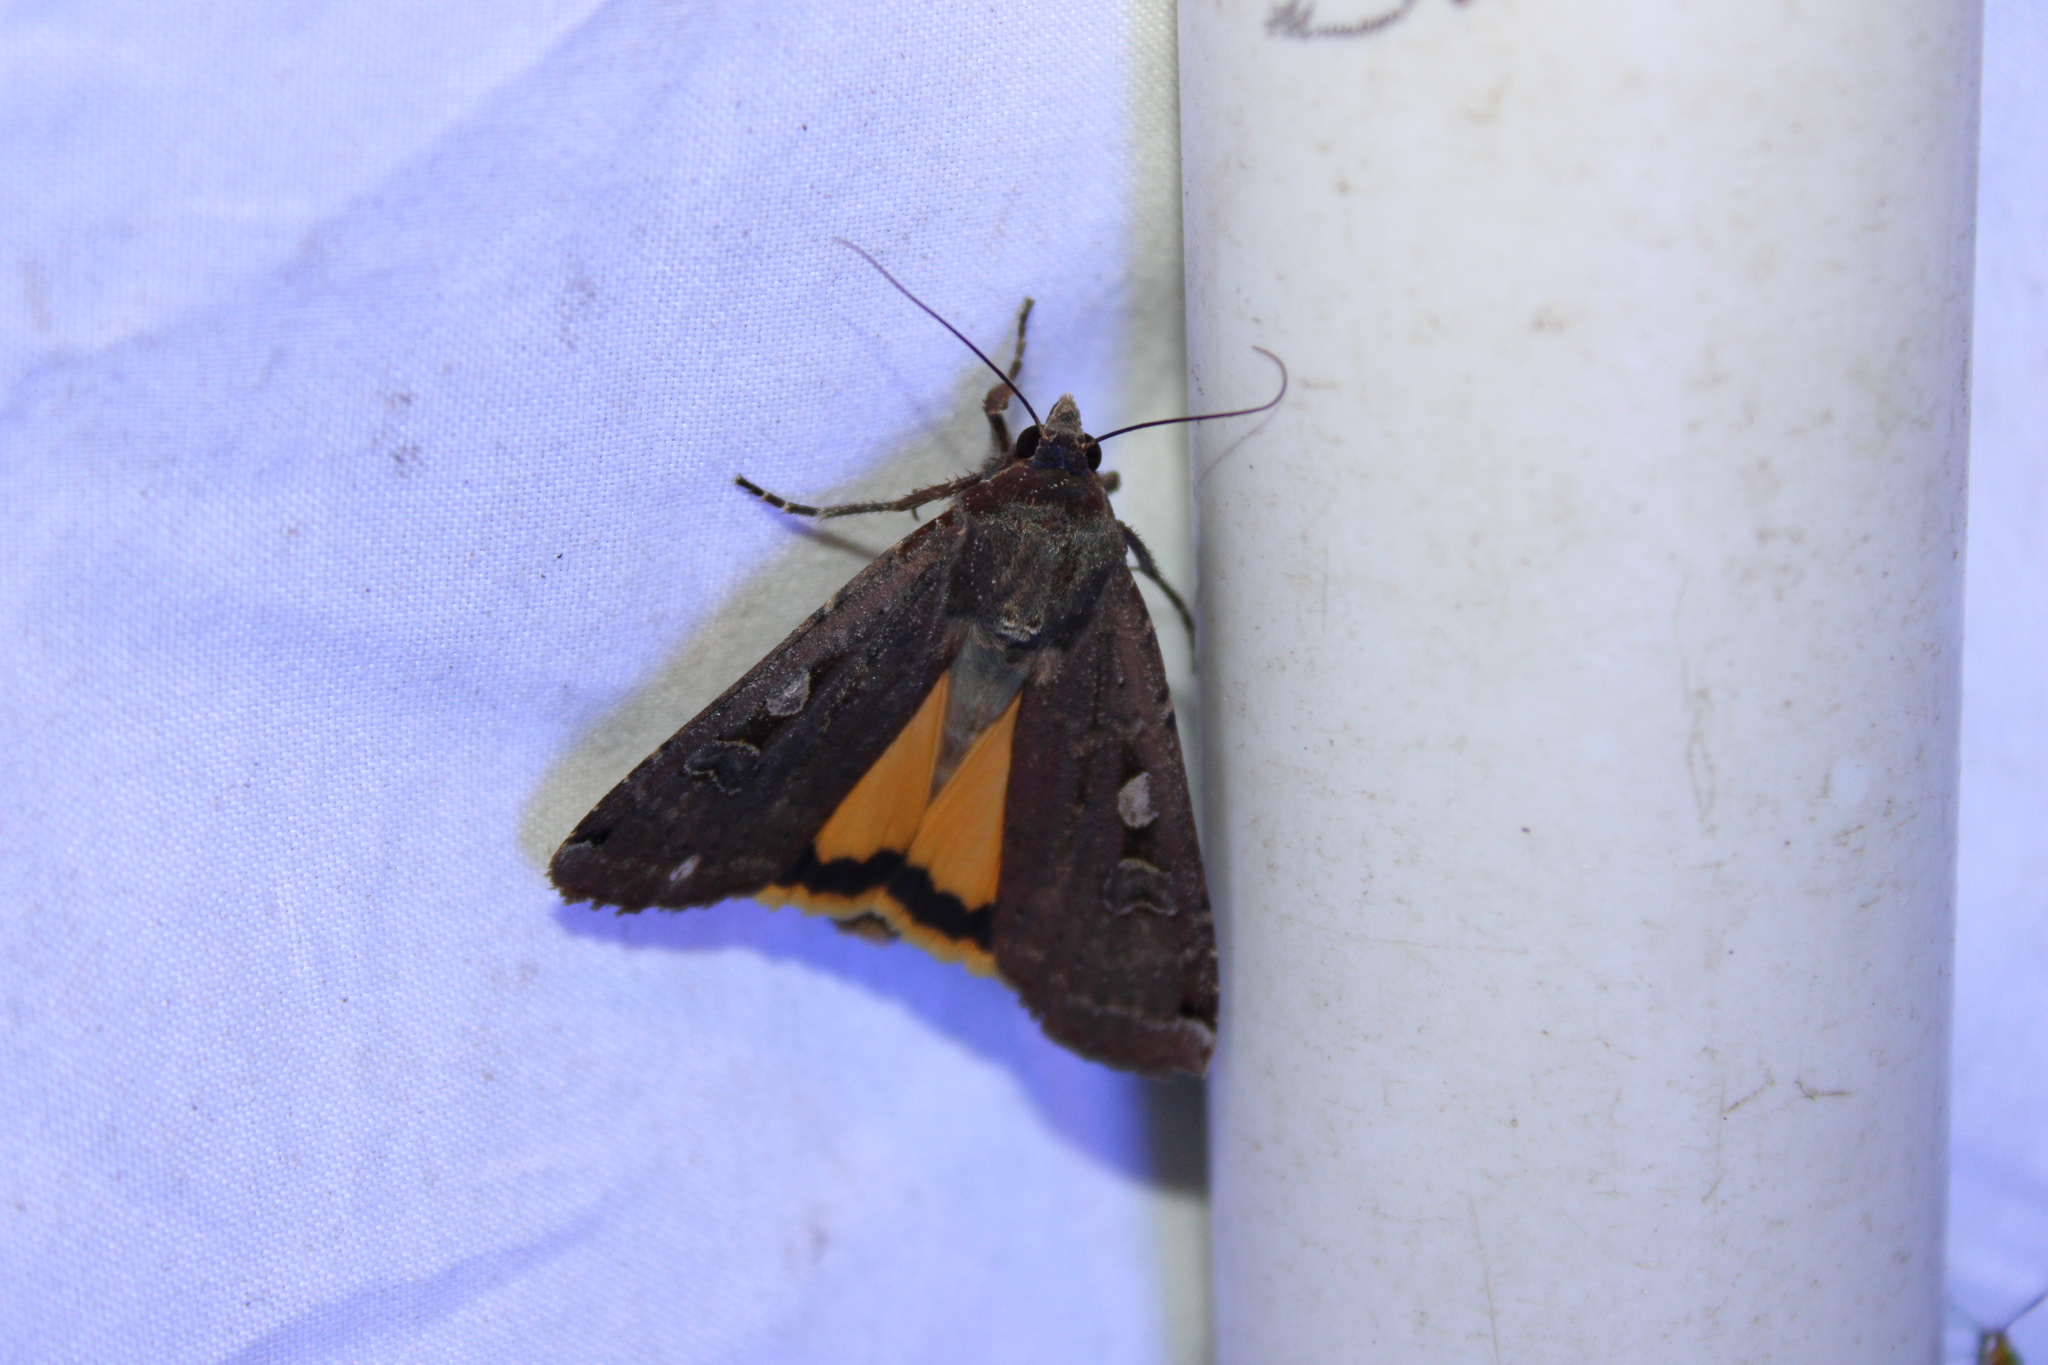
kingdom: Animalia
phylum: Arthropoda
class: Insecta
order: Lepidoptera
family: Noctuidae
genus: Noctua
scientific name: Noctua pronuba
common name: Large yellow underwing
